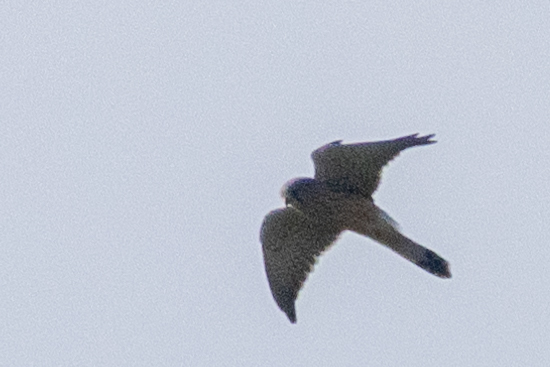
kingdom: Animalia
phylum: Chordata
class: Aves
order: Falconiformes
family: Falconidae
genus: Falco
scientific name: Falco tinnunculus
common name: Common kestrel
